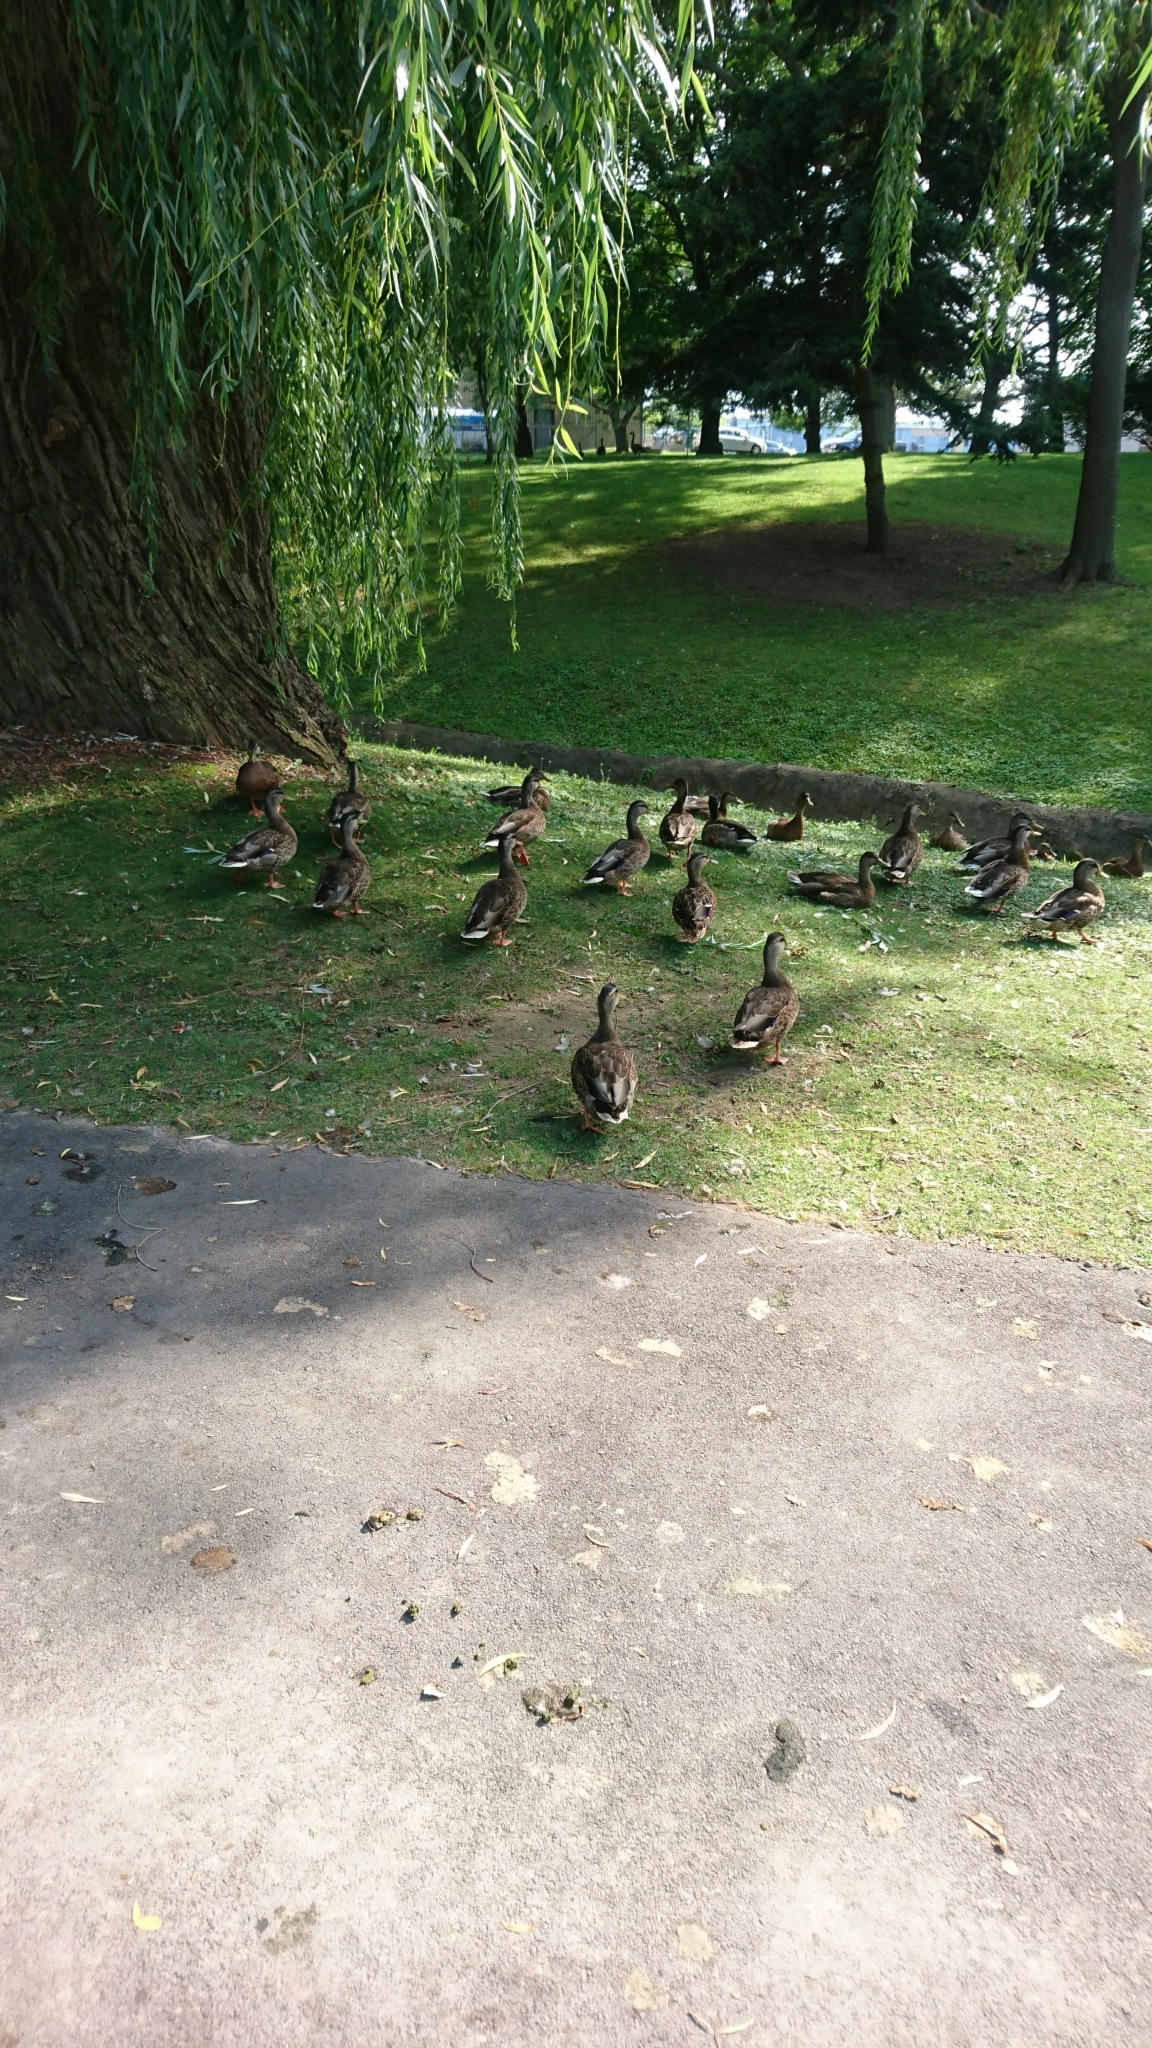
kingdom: Animalia
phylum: Chordata
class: Aves
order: Anseriformes
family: Anatidae
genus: Anas
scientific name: Anas platyrhynchos
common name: Mallard
